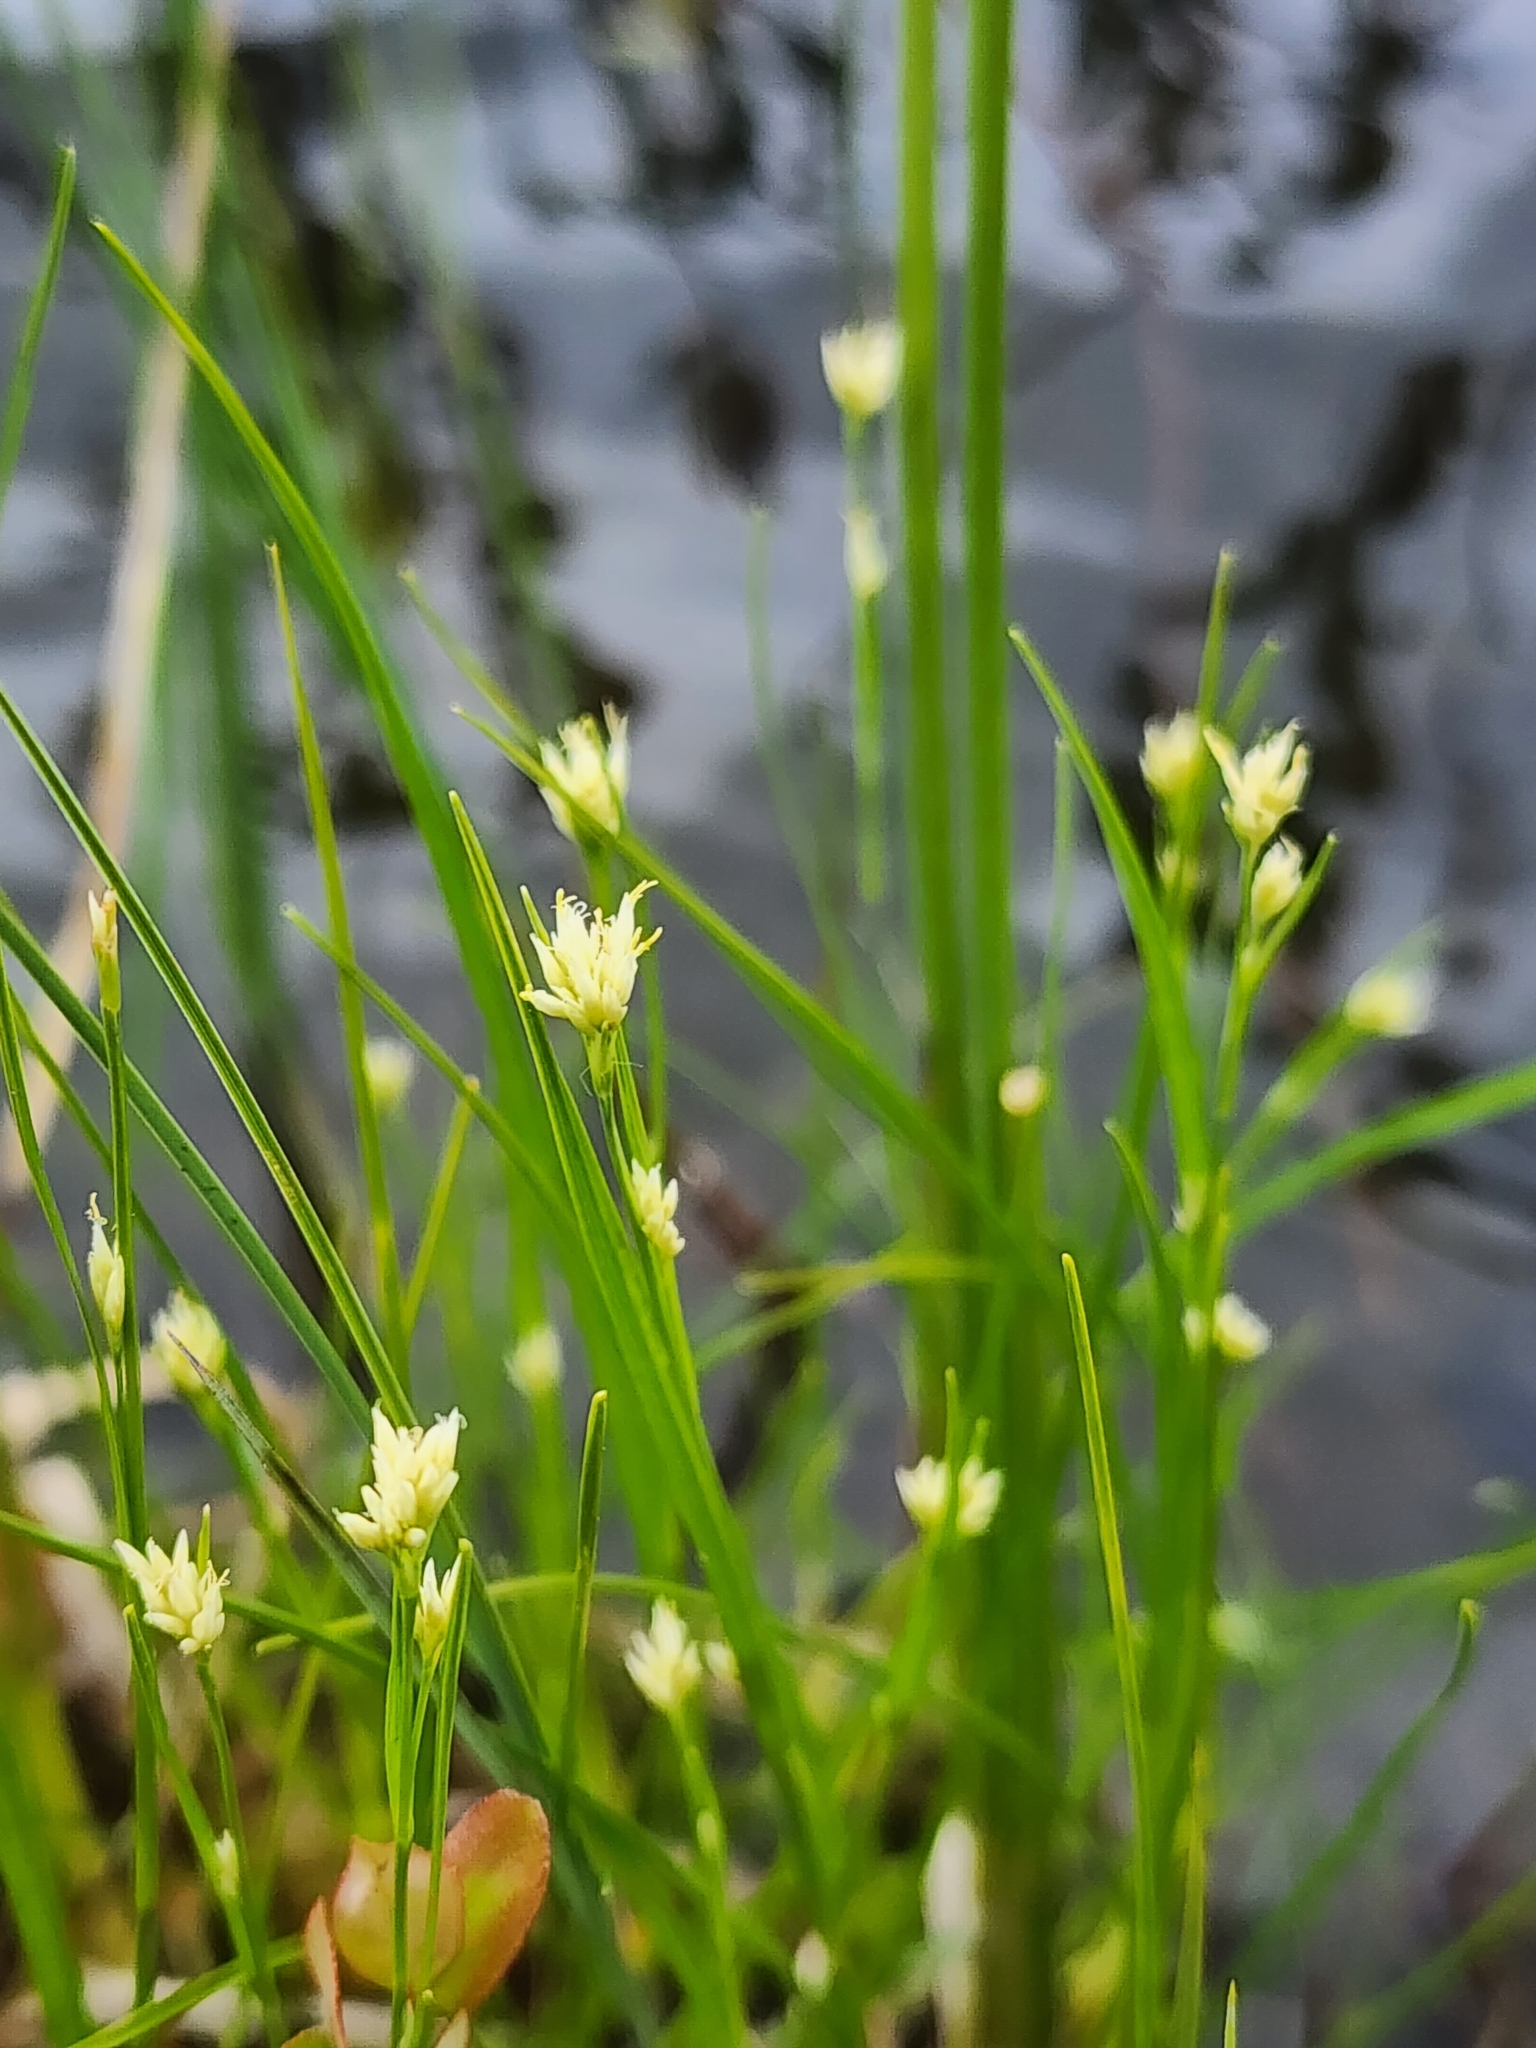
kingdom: Plantae
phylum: Tracheophyta
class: Liliopsida
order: Poales
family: Cyperaceae
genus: Rhynchospora
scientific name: Rhynchospora alba
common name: White beak-sedge
